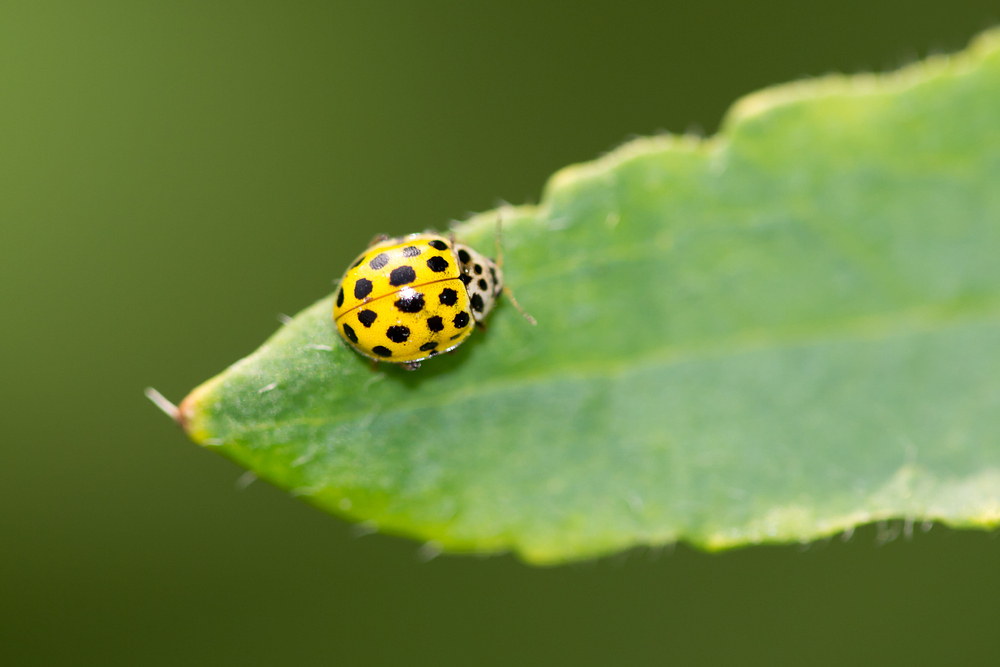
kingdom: Animalia
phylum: Arthropoda
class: Insecta
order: Coleoptera
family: Coccinellidae
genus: Psyllobora
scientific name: Psyllobora vigintiduopunctata
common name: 22-spot ladybird
